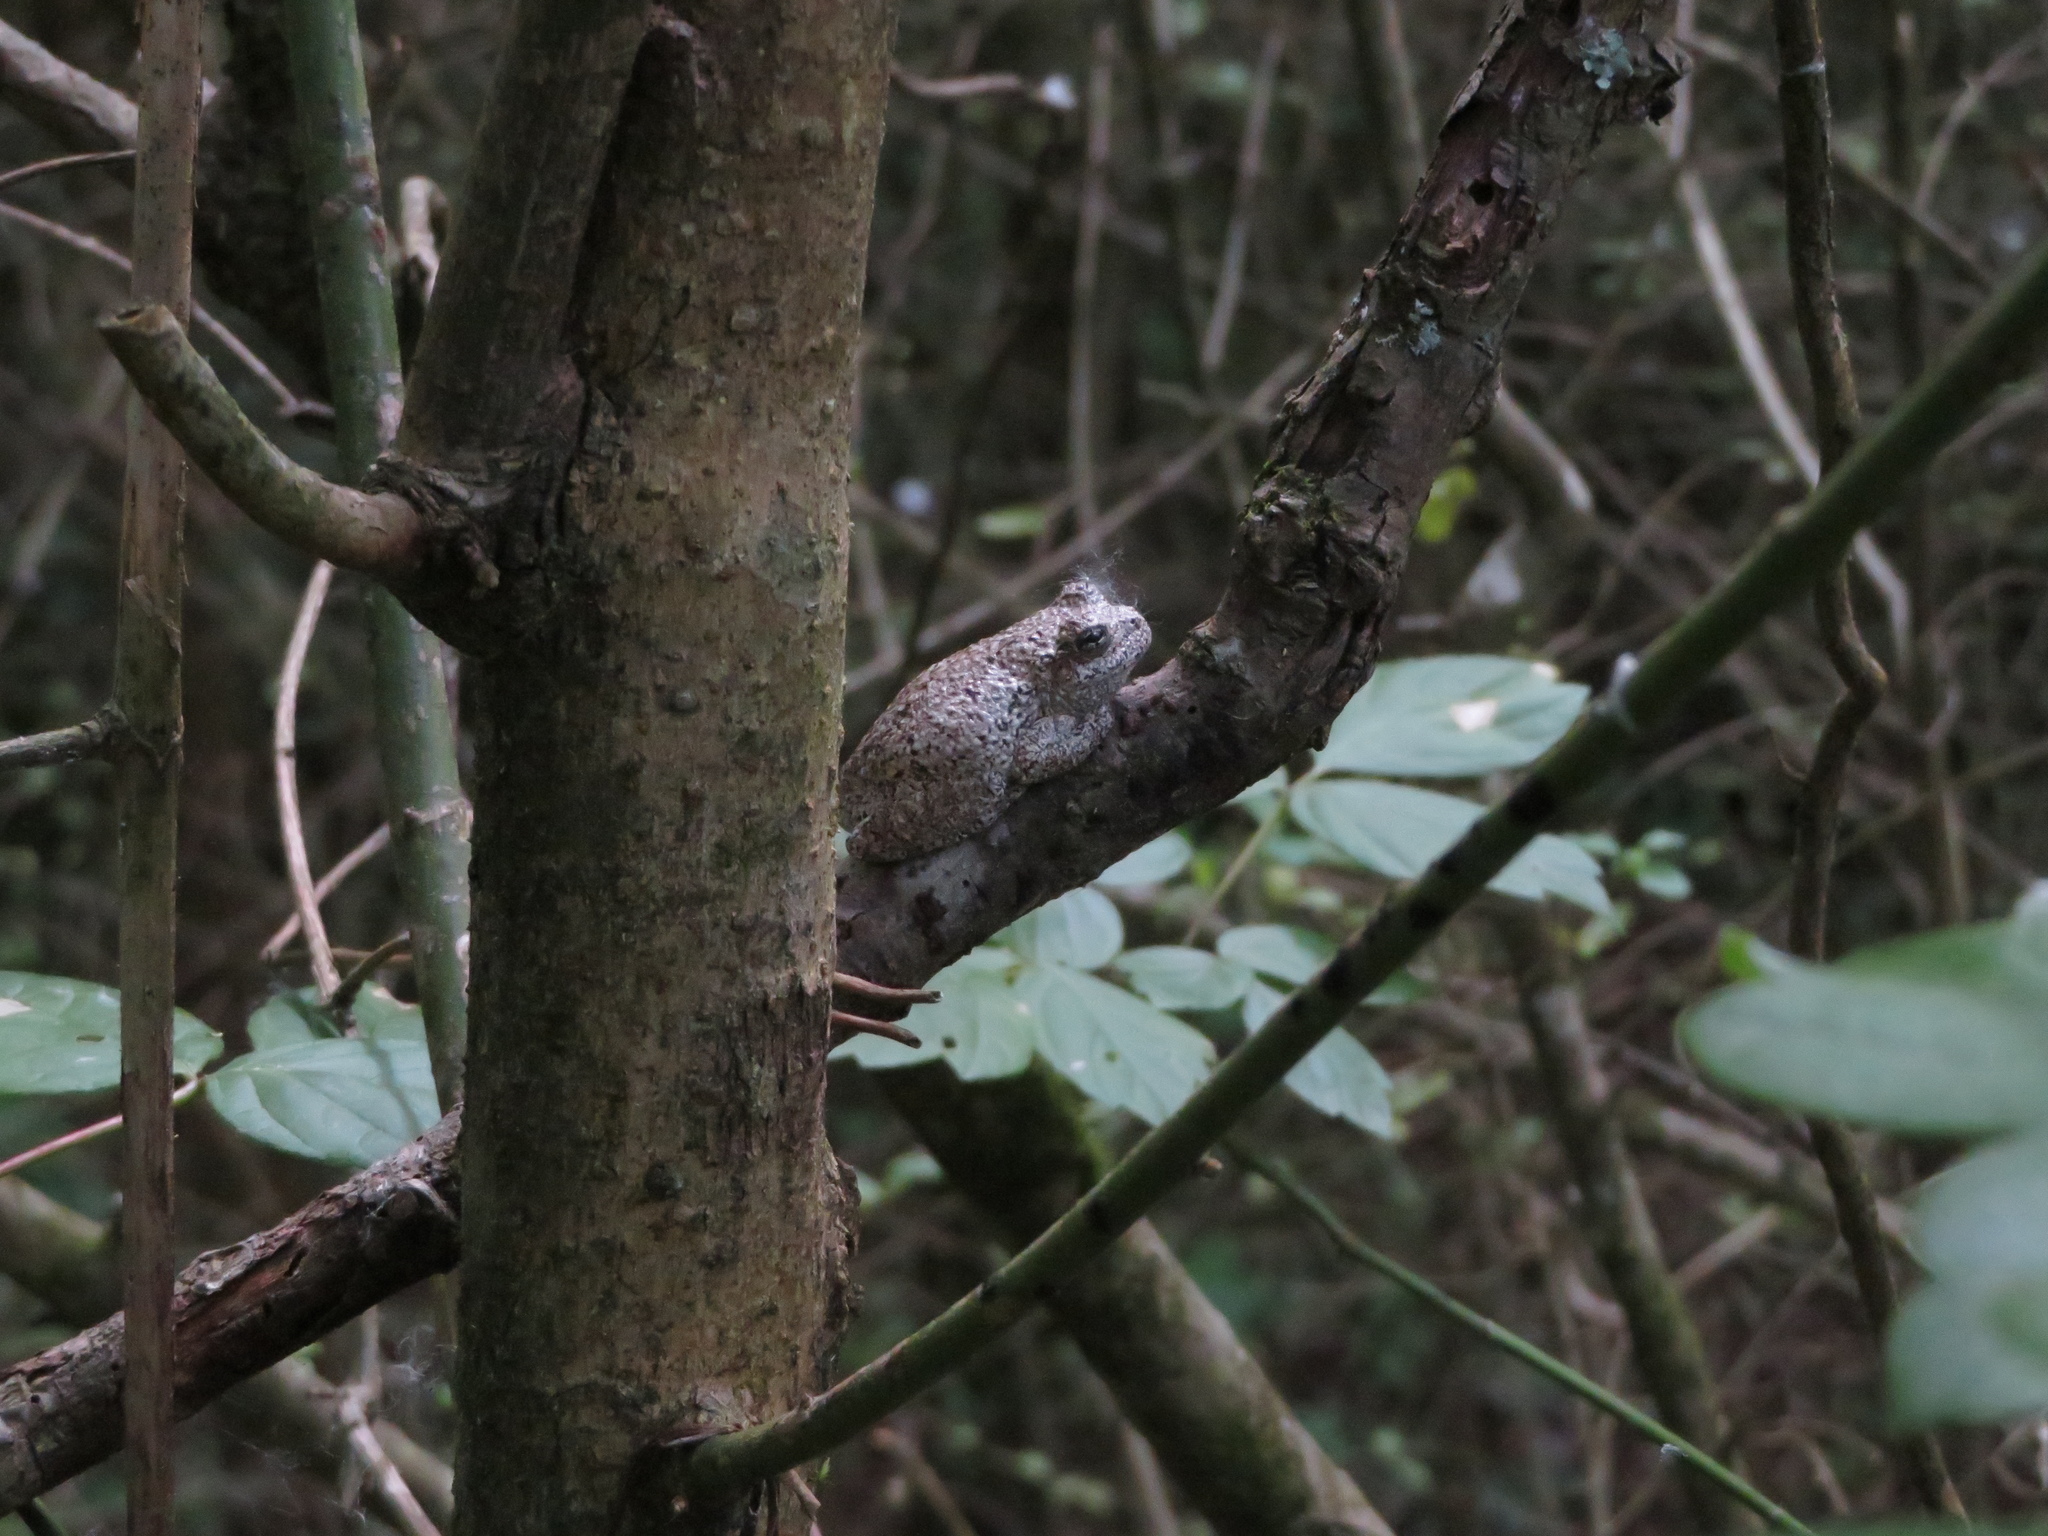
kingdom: Animalia
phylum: Chordata
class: Amphibia
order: Anura
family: Hylidae
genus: Dryophytes
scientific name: Dryophytes chrysoscelis
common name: Cope's gray treefrog
